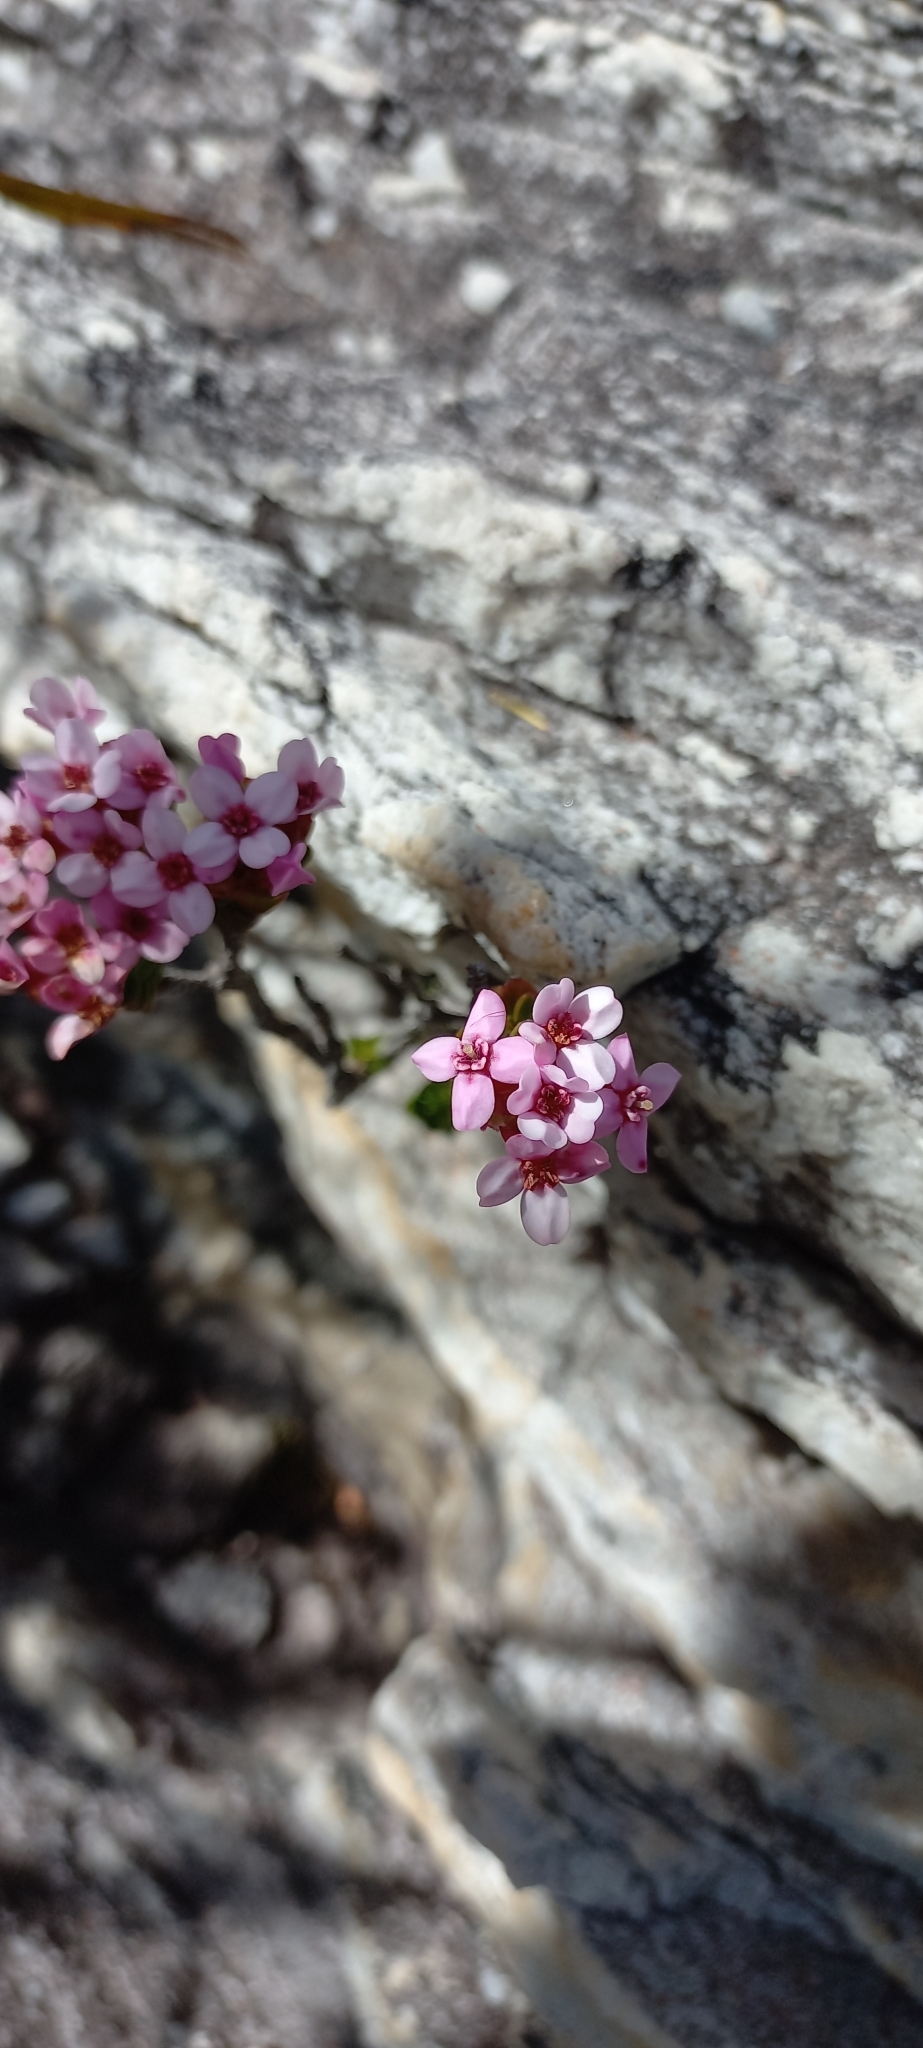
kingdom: Plantae
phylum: Tracheophyta
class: Magnoliopsida
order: Myrtales
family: Penaeaceae
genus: Sonderothamnus
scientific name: Sonderothamnus petraeus
